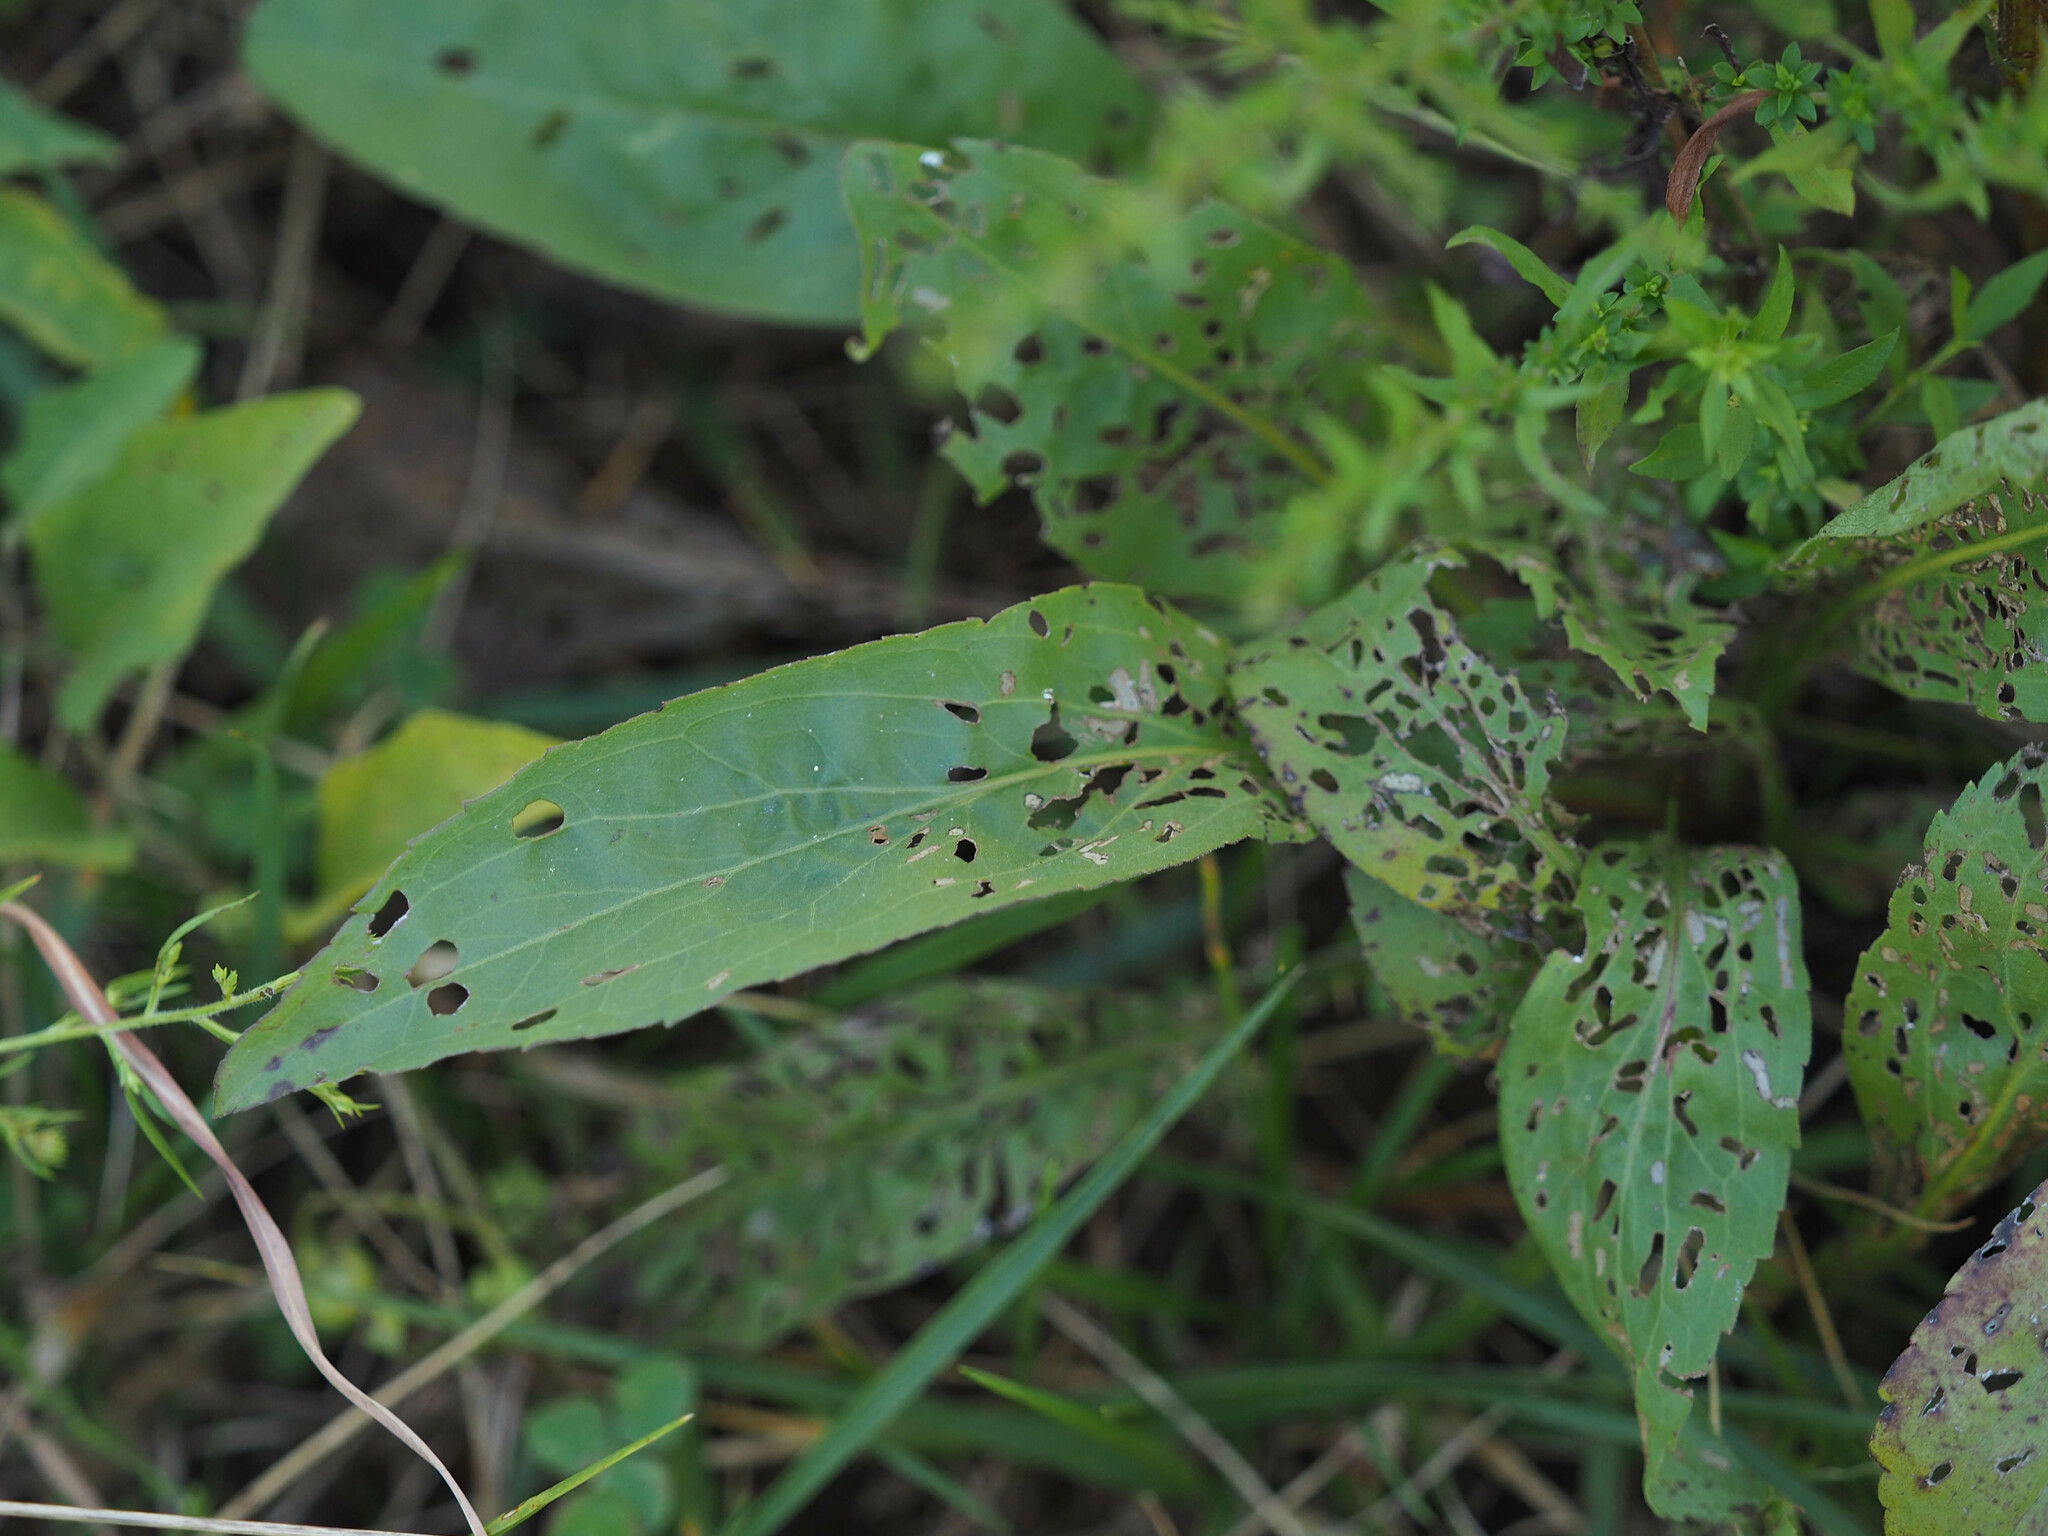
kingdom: Plantae
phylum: Tracheophyta
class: Magnoliopsida
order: Asterales
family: Asteraceae
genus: Solidago
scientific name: Solidago
